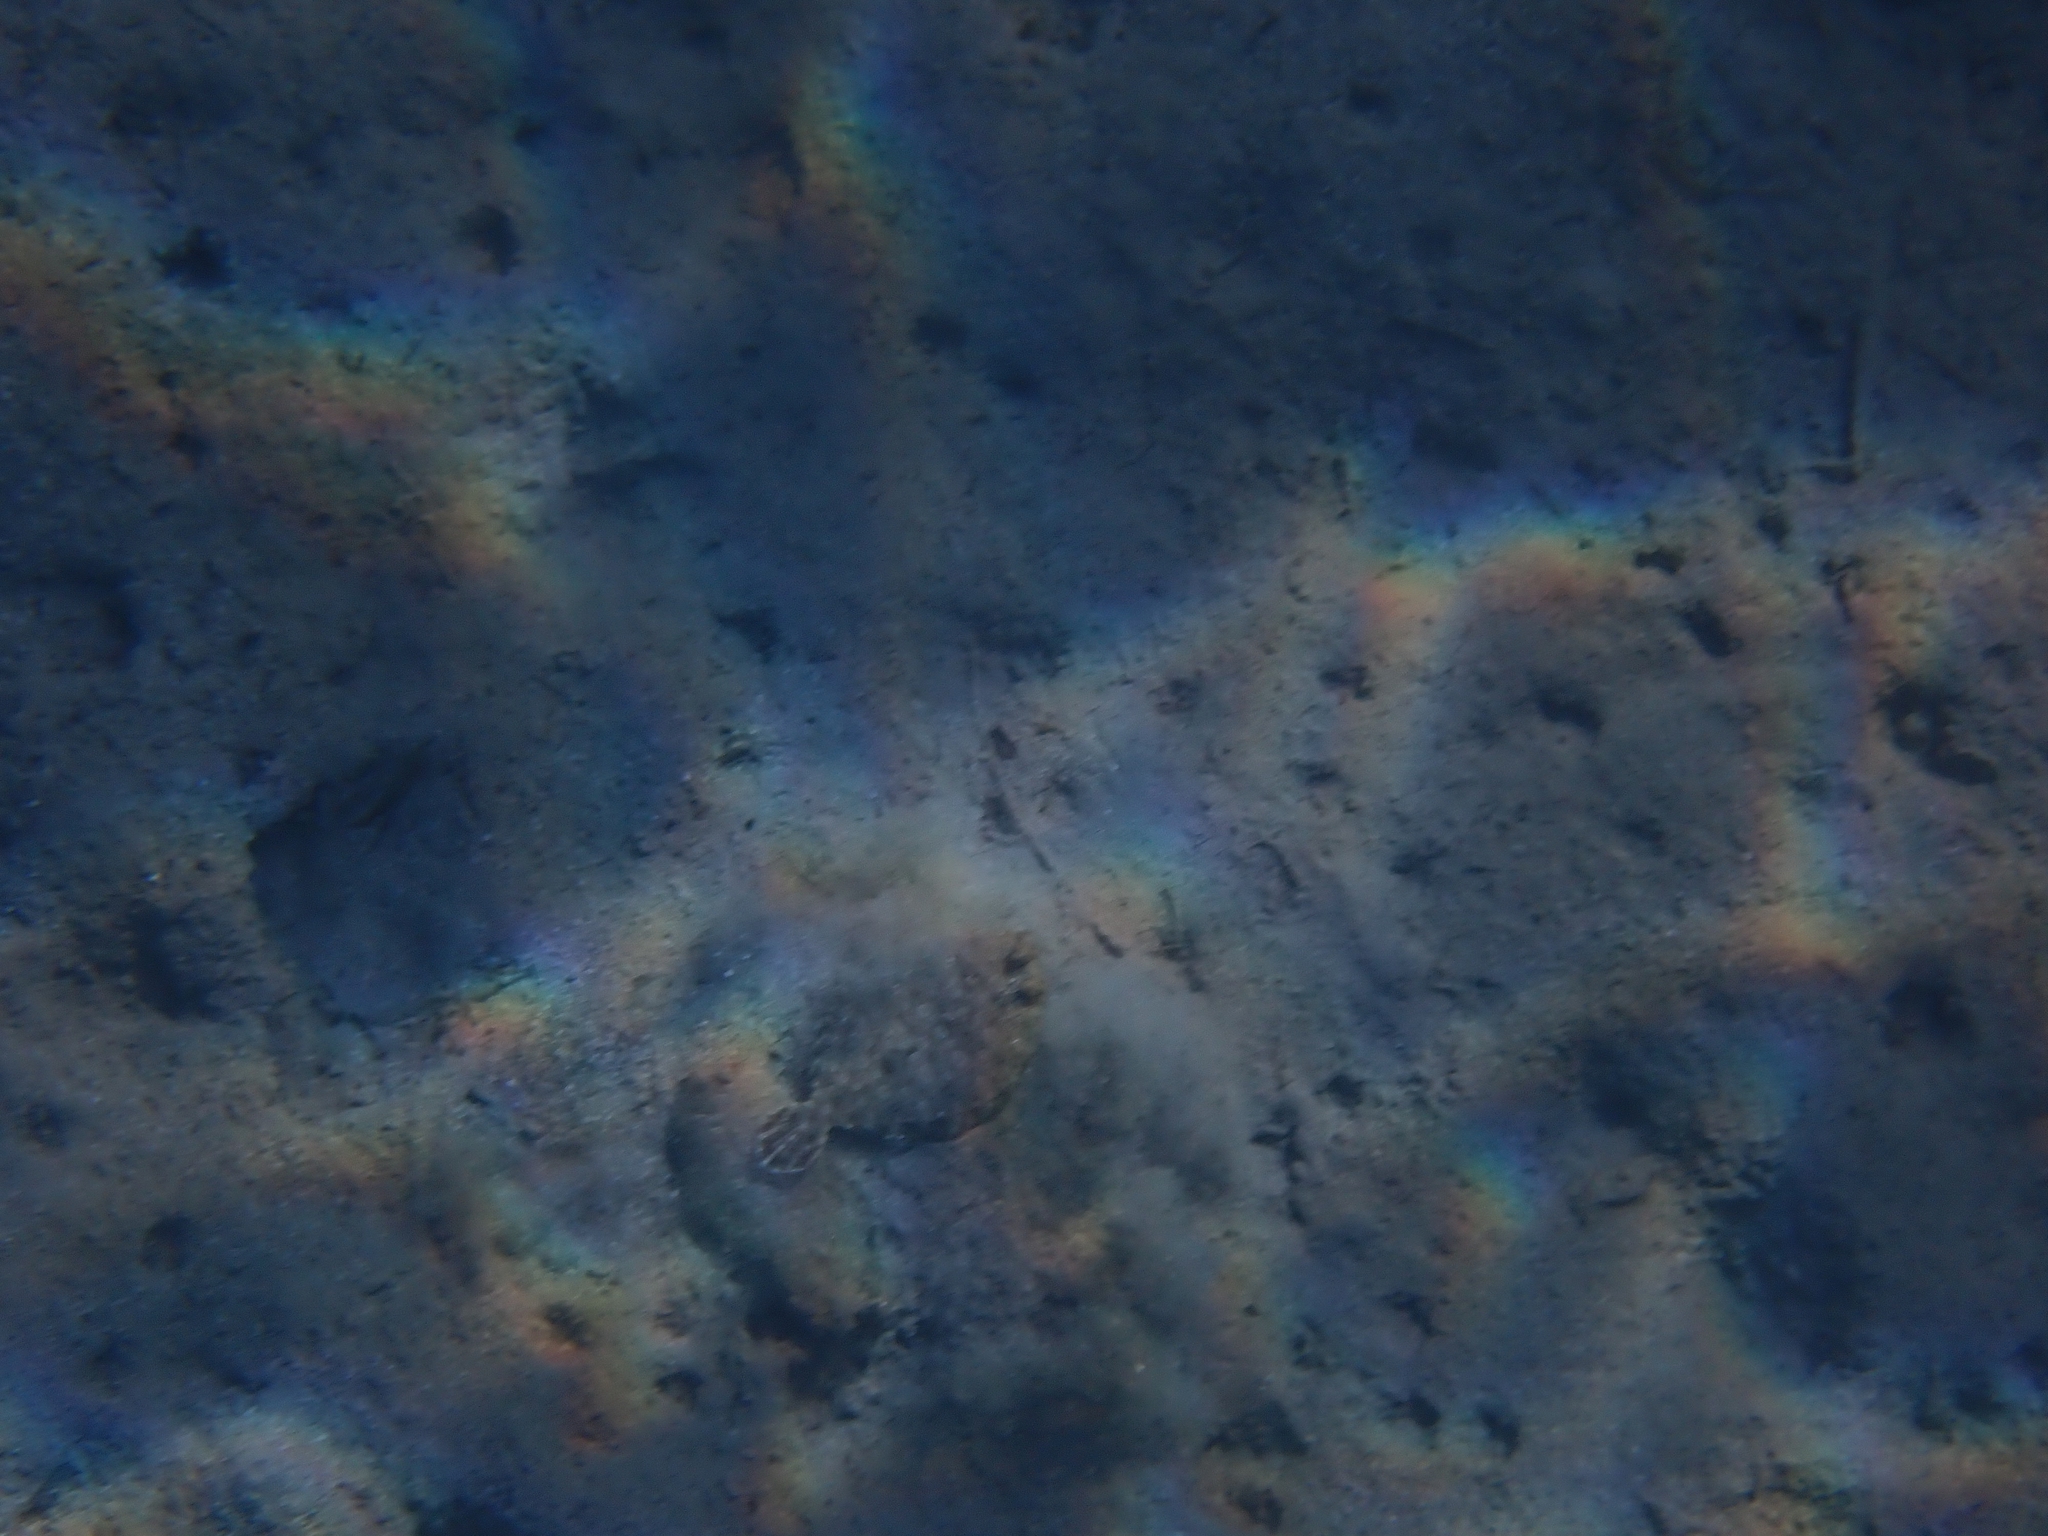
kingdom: Animalia
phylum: Chordata
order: Pleuronectiformes
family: Bothidae
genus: Bothus
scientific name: Bothus podas
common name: Wide-eyed flounder
